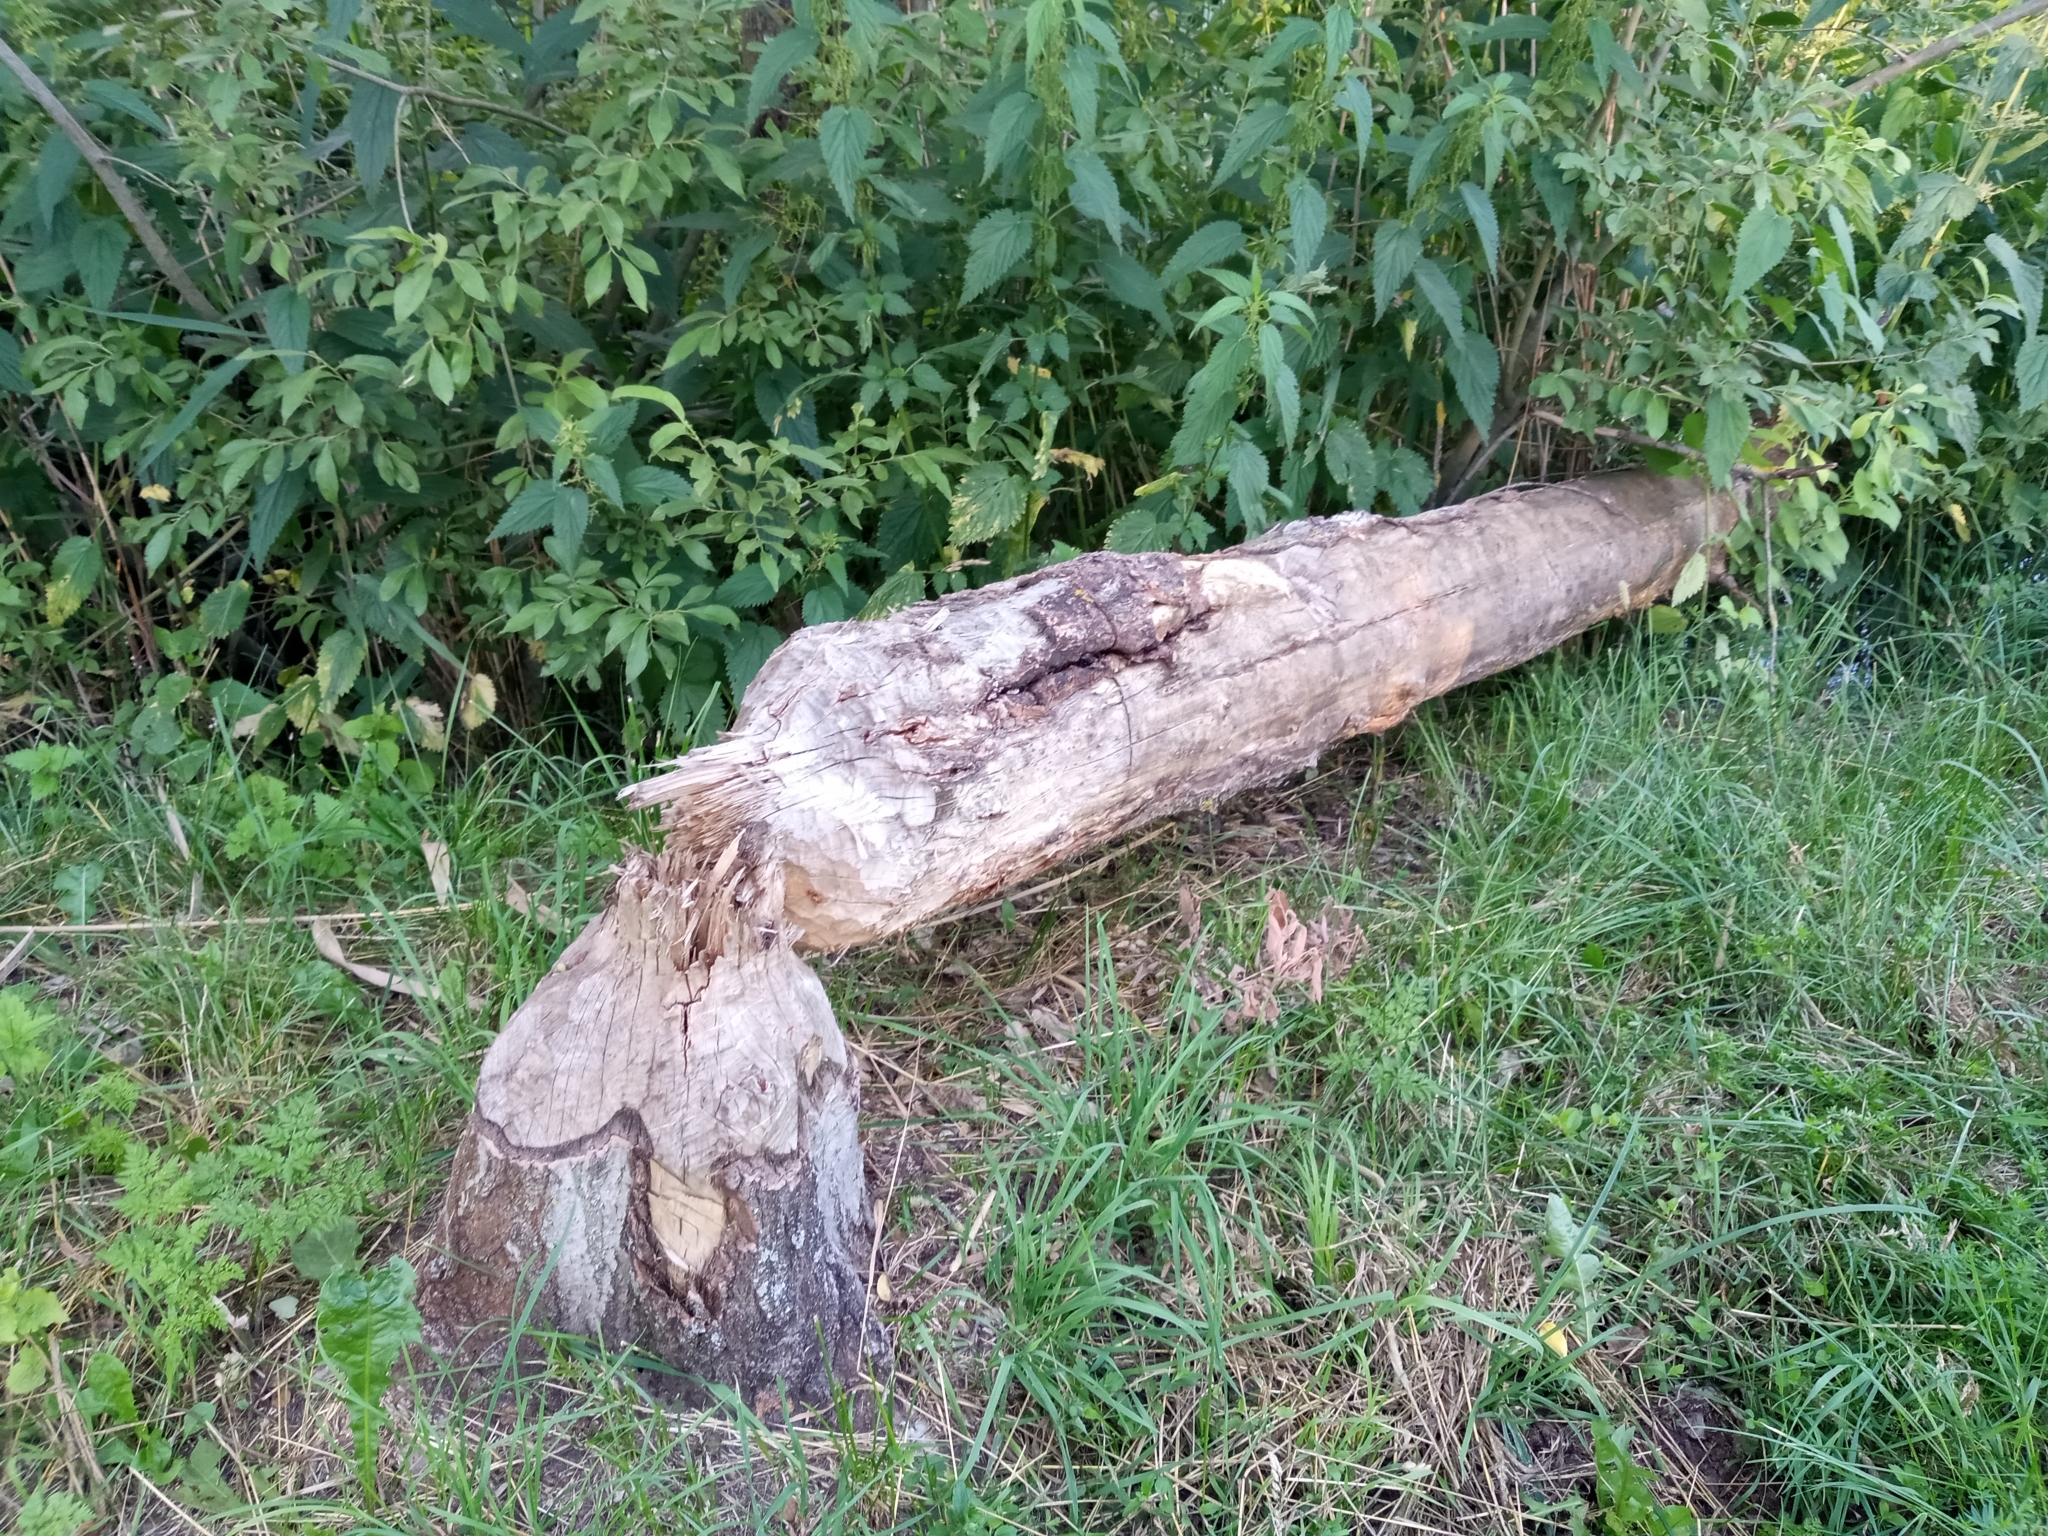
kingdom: Animalia
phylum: Chordata
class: Mammalia
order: Rodentia
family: Castoridae
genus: Castor
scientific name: Castor fiber
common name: Eurasian beaver
